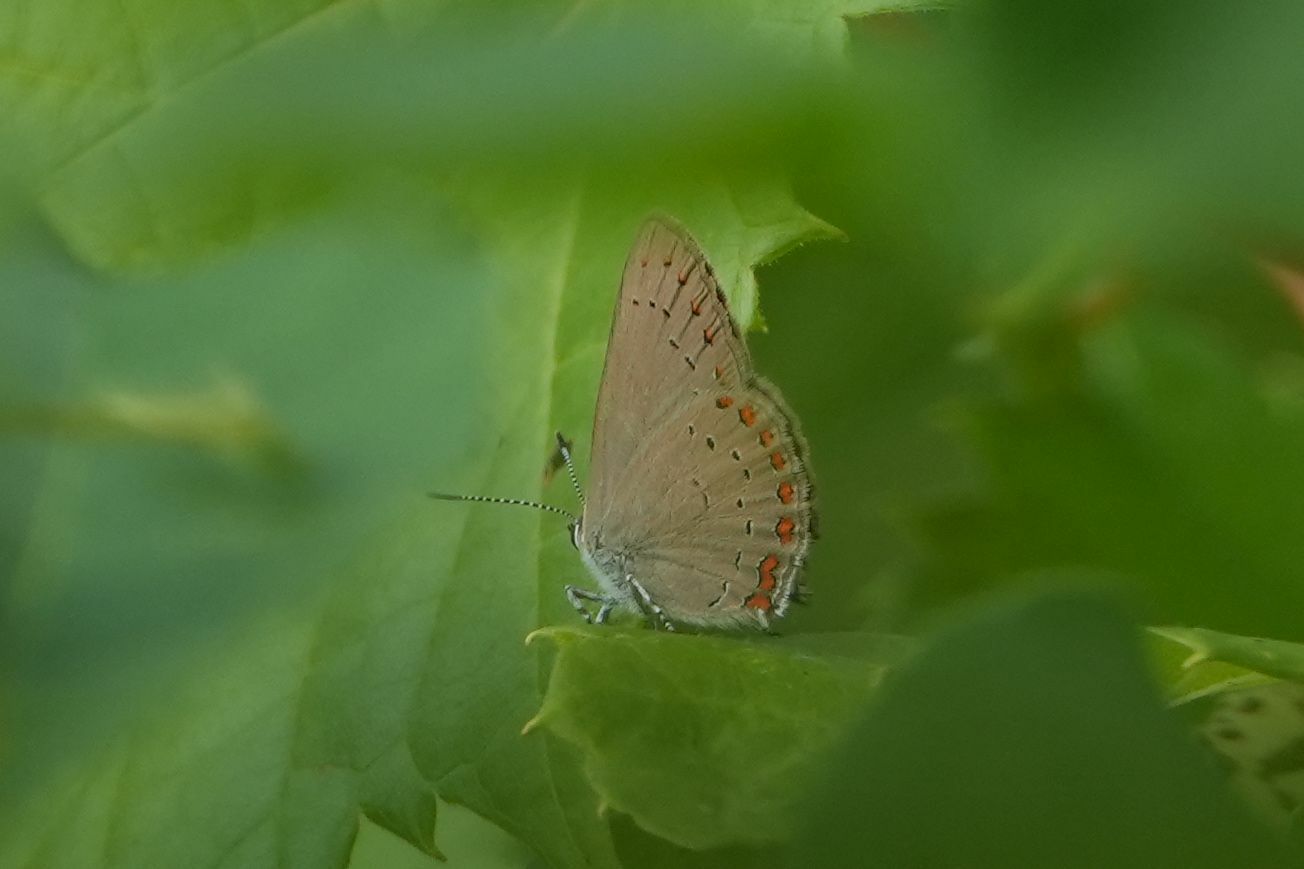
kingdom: Animalia
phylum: Arthropoda
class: Insecta
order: Lepidoptera
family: Lycaenidae
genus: Harkenclenus
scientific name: Harkenclenus titus
